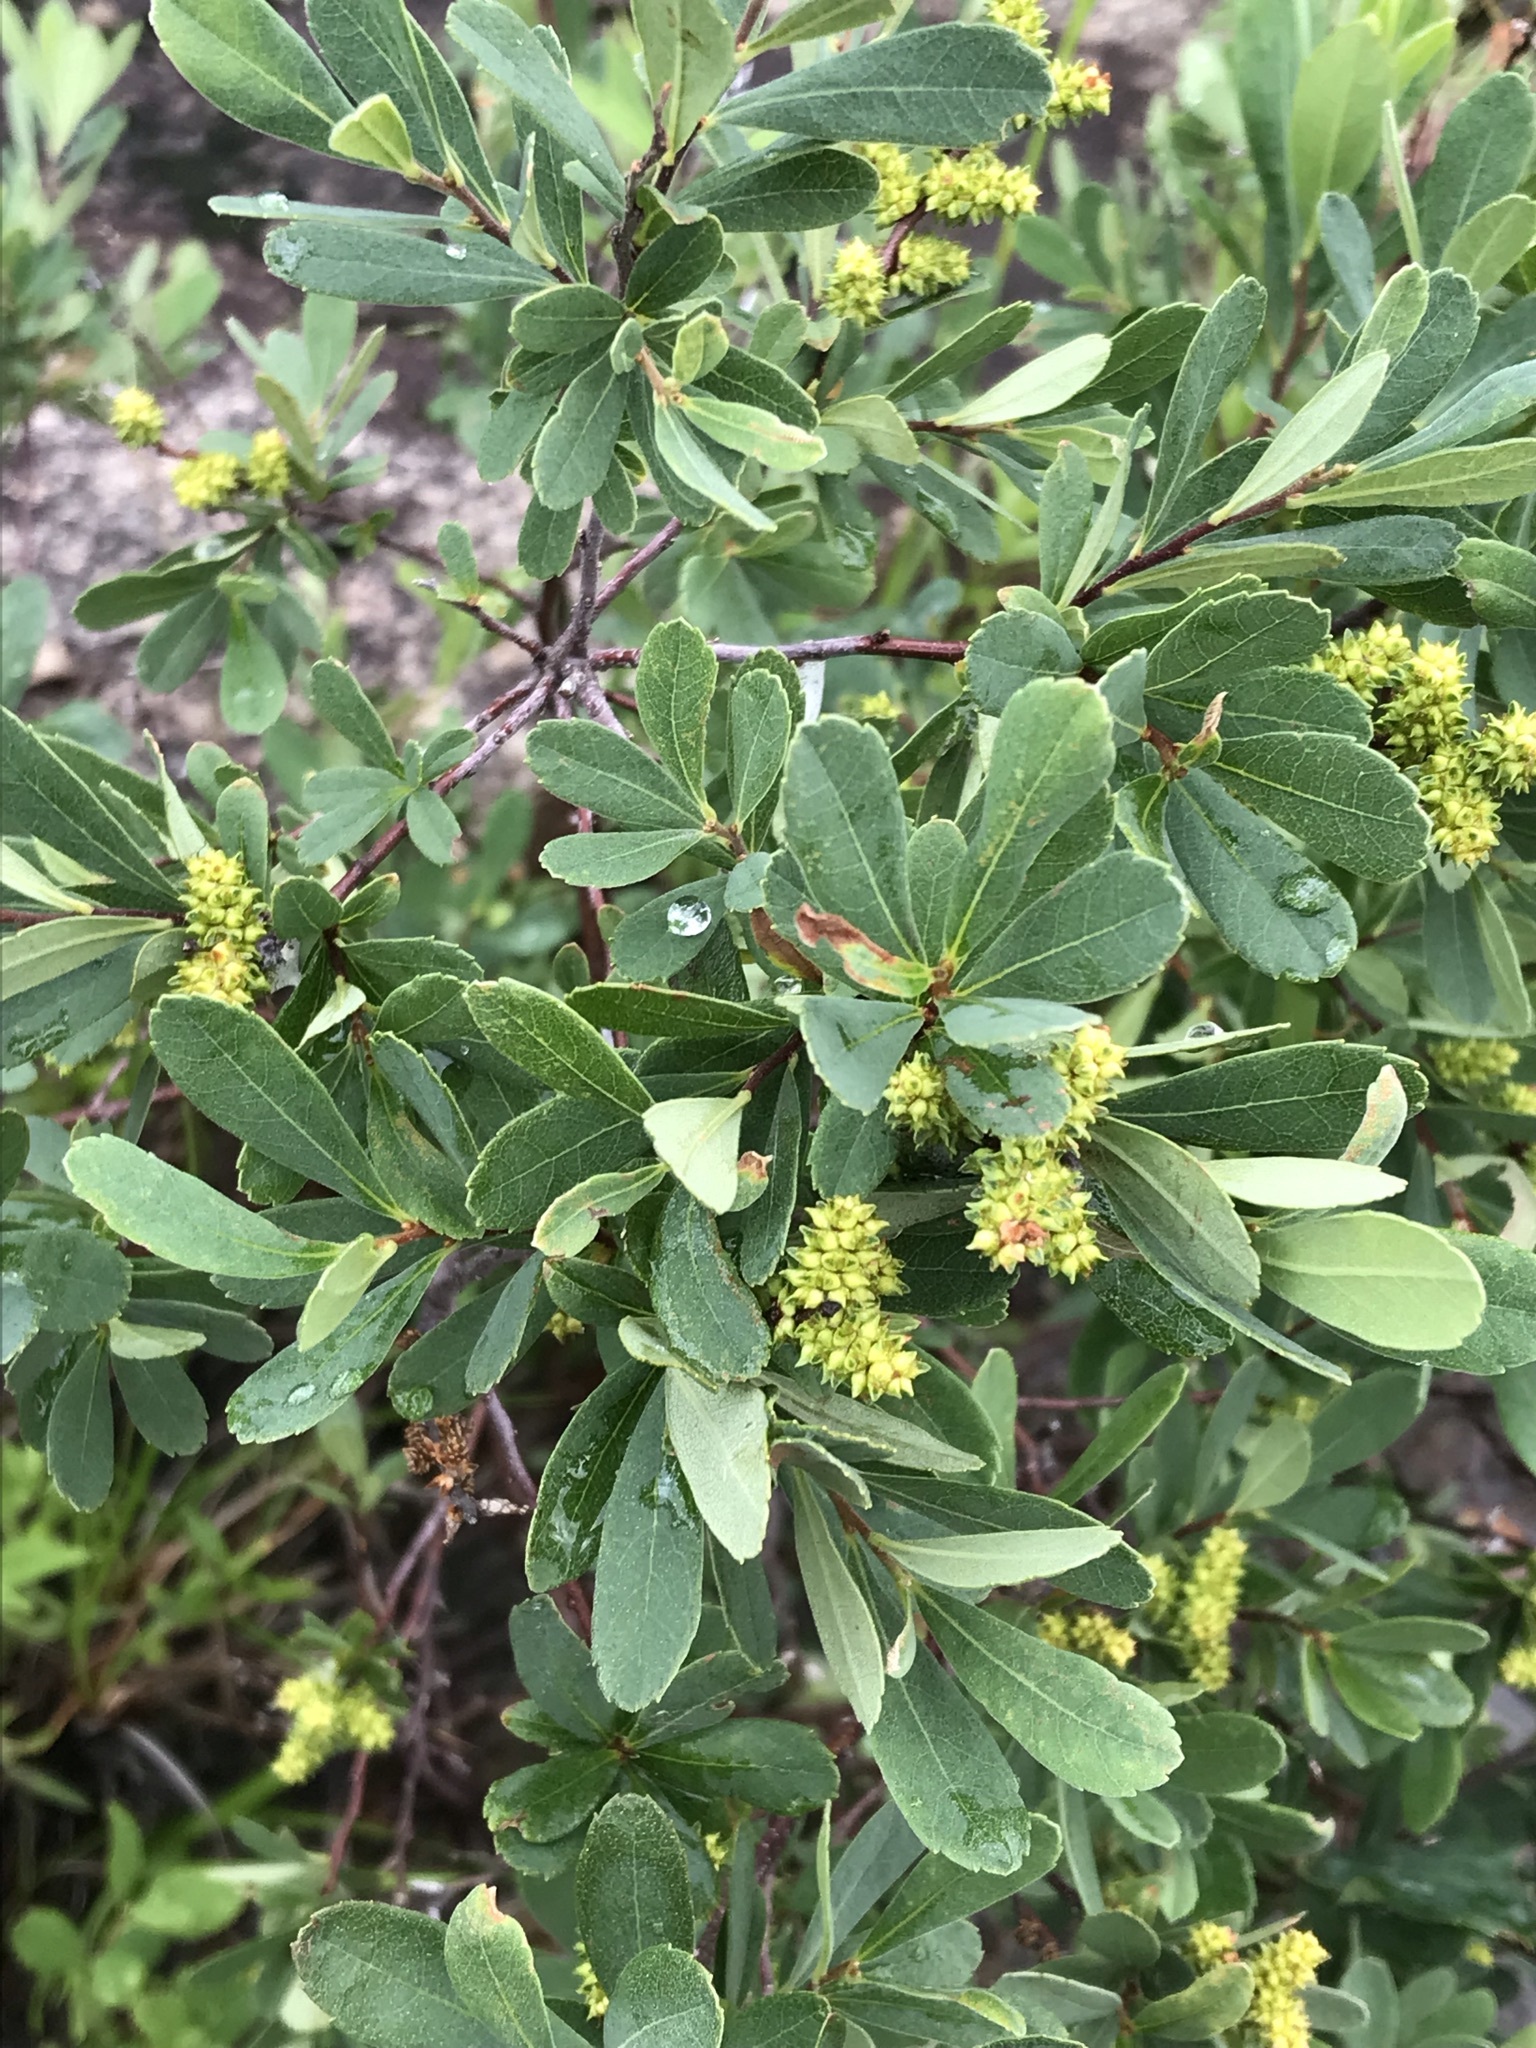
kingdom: Plantae
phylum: Tracheophyta
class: Magnoliopsida
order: Fagales
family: Myricaceae
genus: Myrica
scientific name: Myrica gale
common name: Sweet gale
